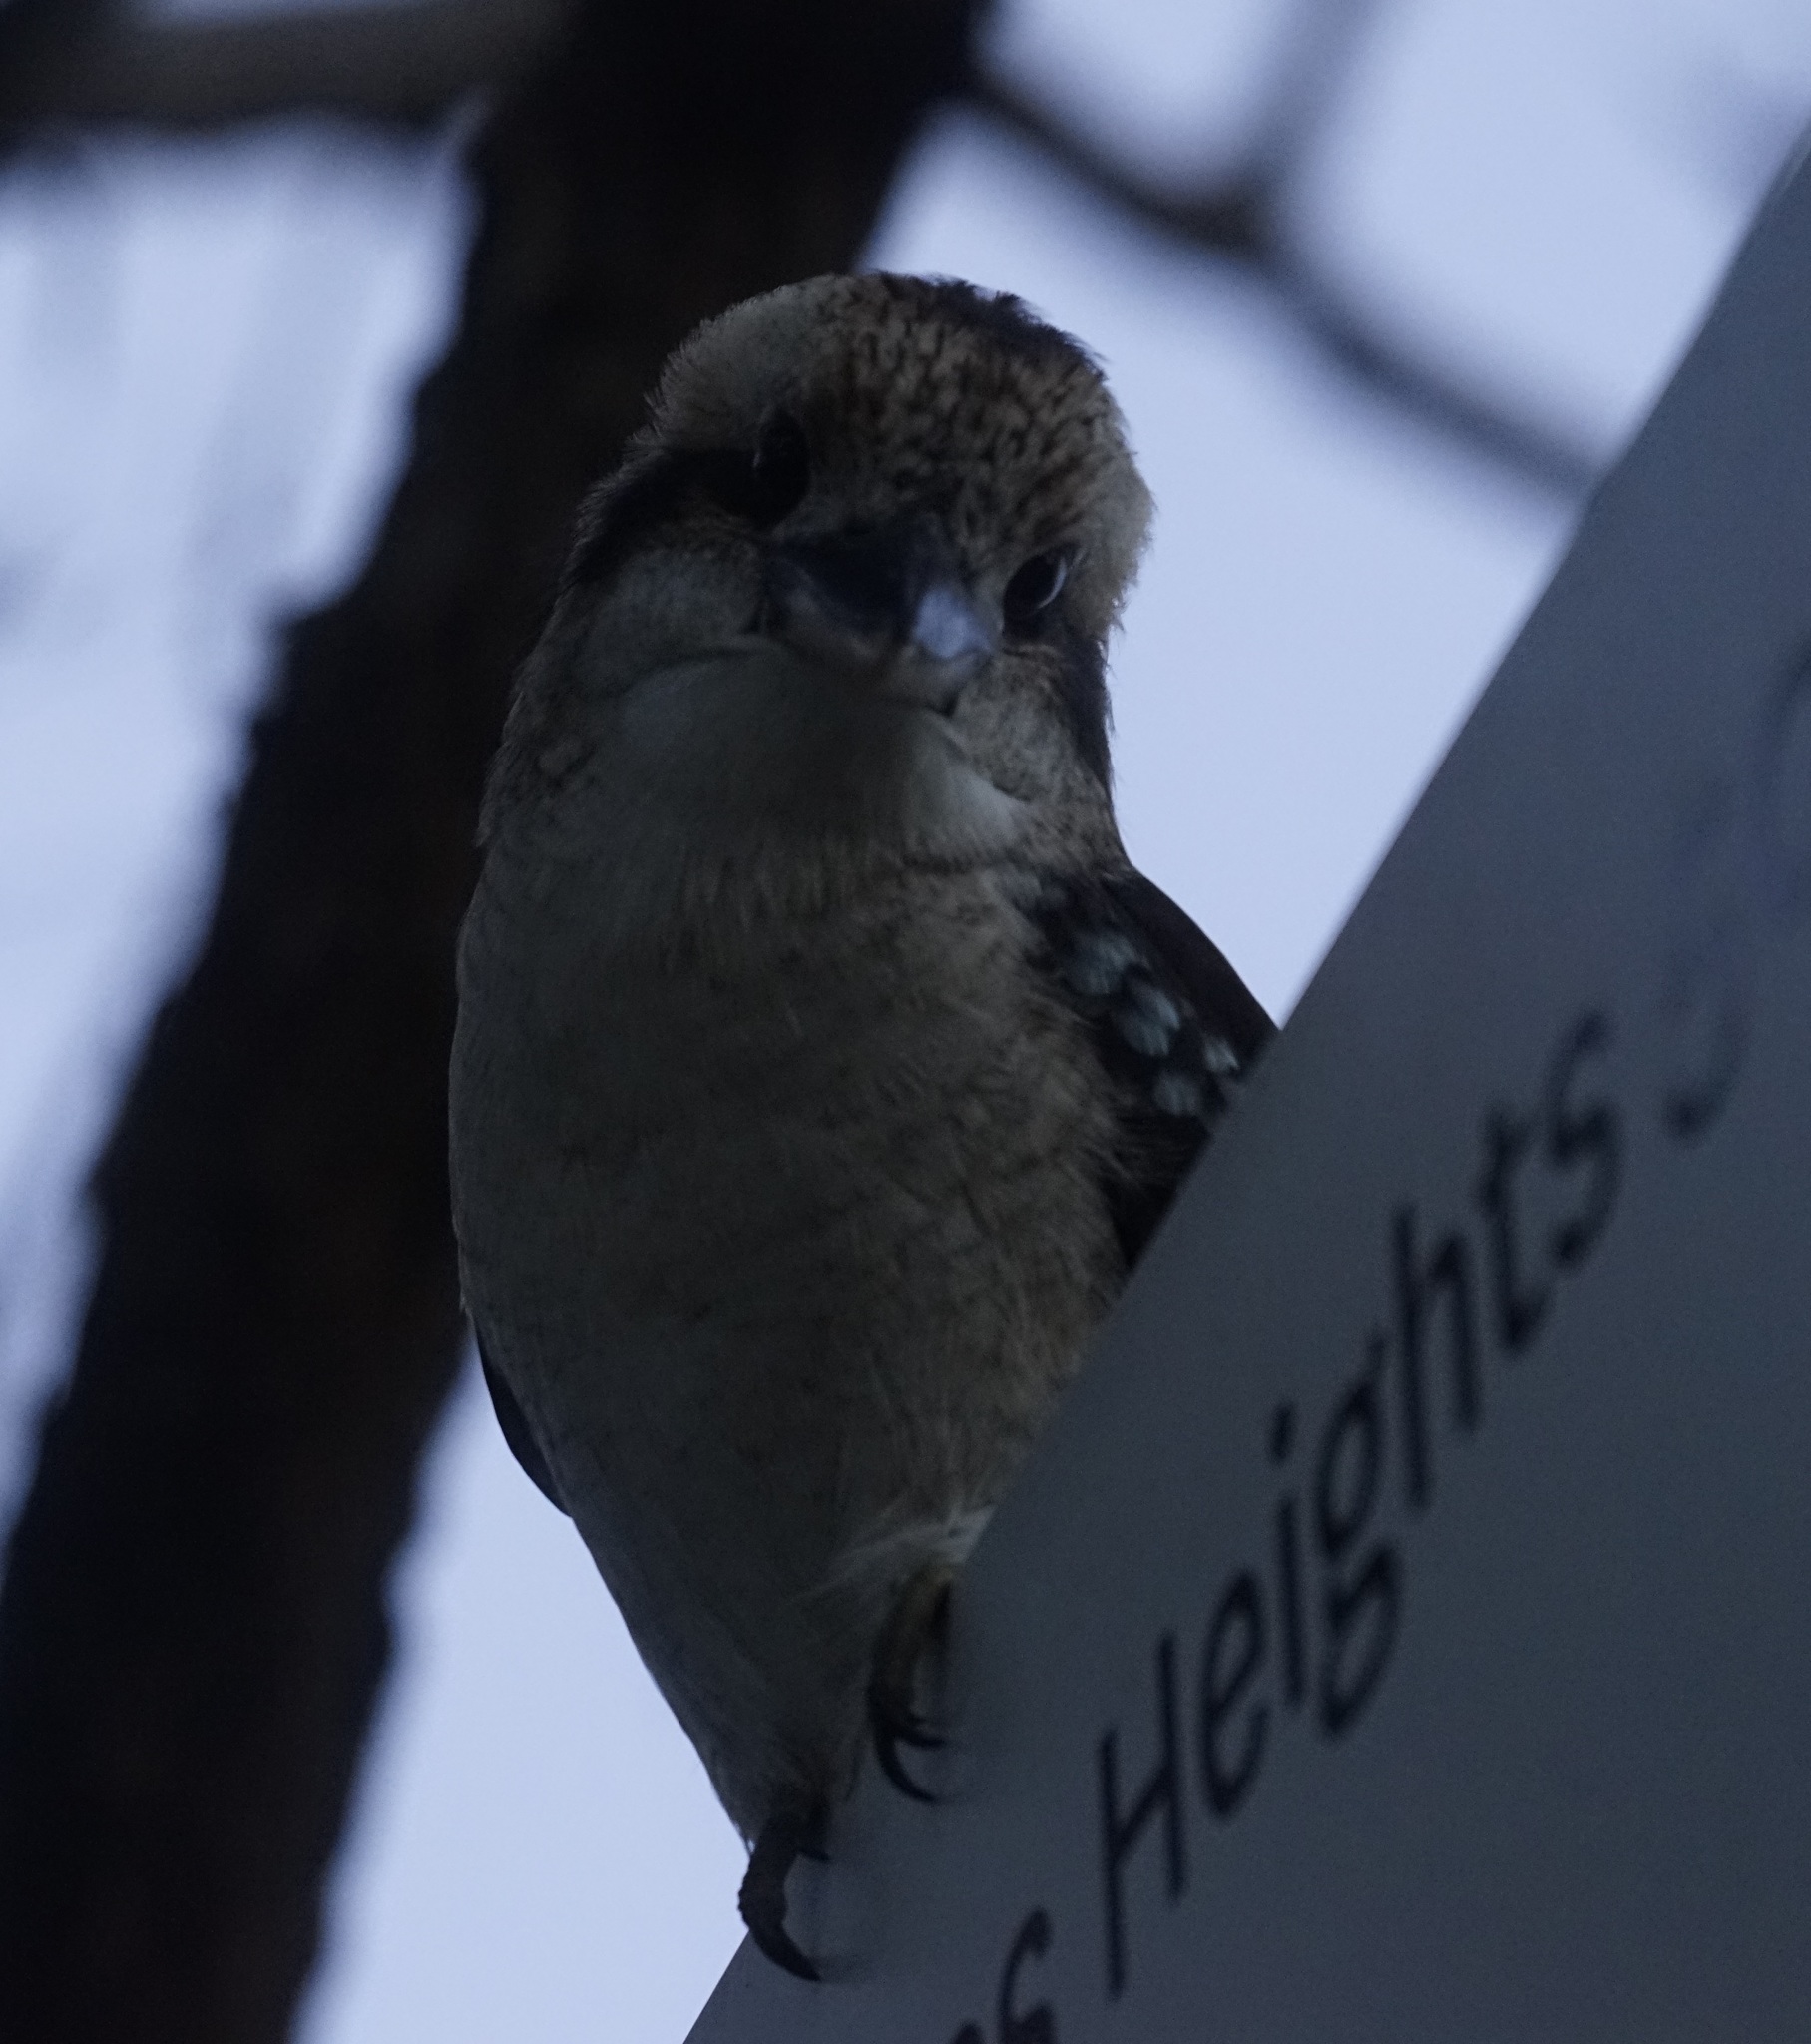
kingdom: Animalia
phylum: Chordata
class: Aves
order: Coraciiformes
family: Alcedinidae
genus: Dacelo
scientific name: Dacelo novaeguineae
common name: Laughing kookaburra
